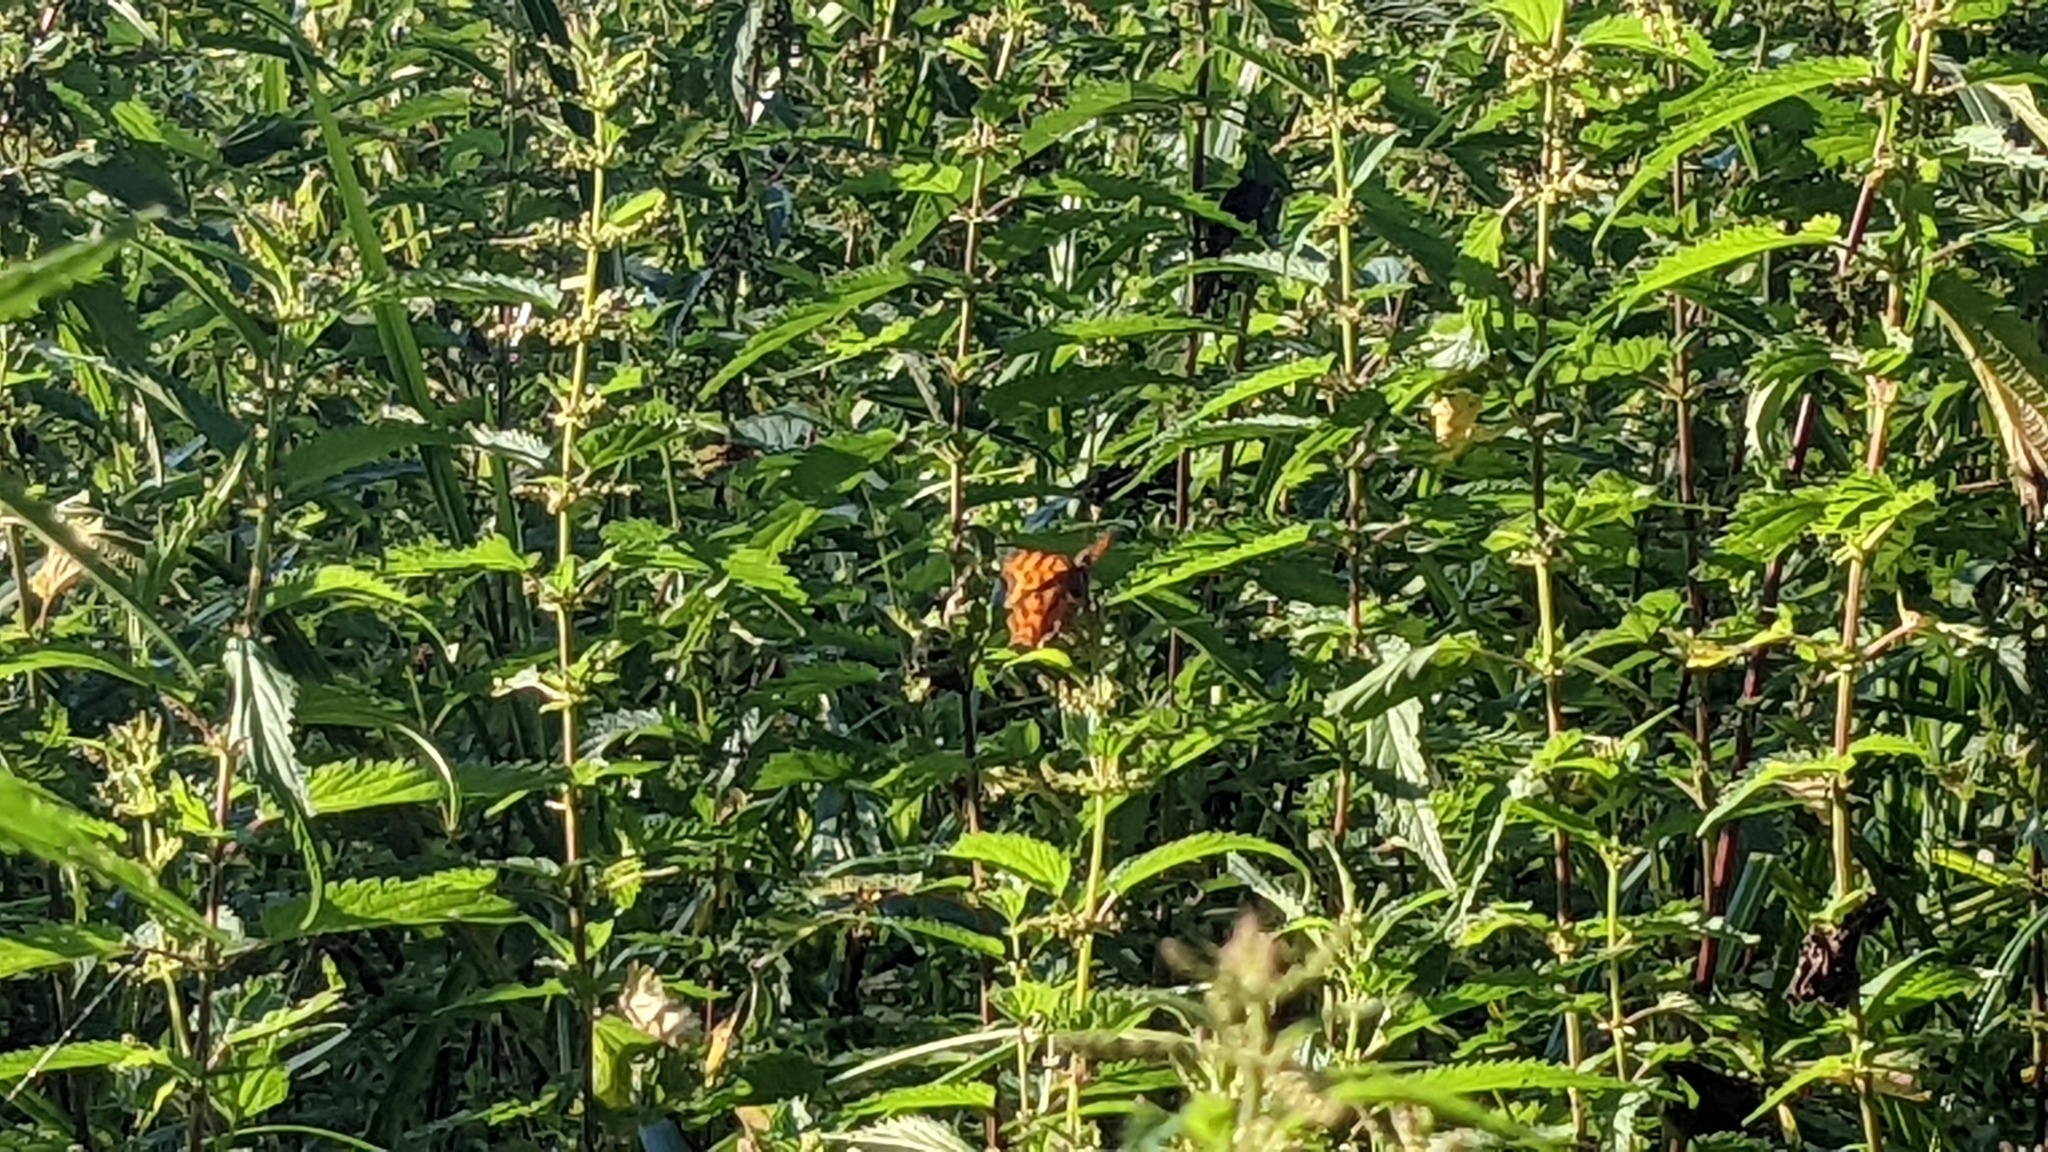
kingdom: Animalia
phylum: Arthropoda
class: Insecta
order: Lepidoptera
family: Nymphalidae
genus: Polygonia
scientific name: Polygonia c-album
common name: Comma
